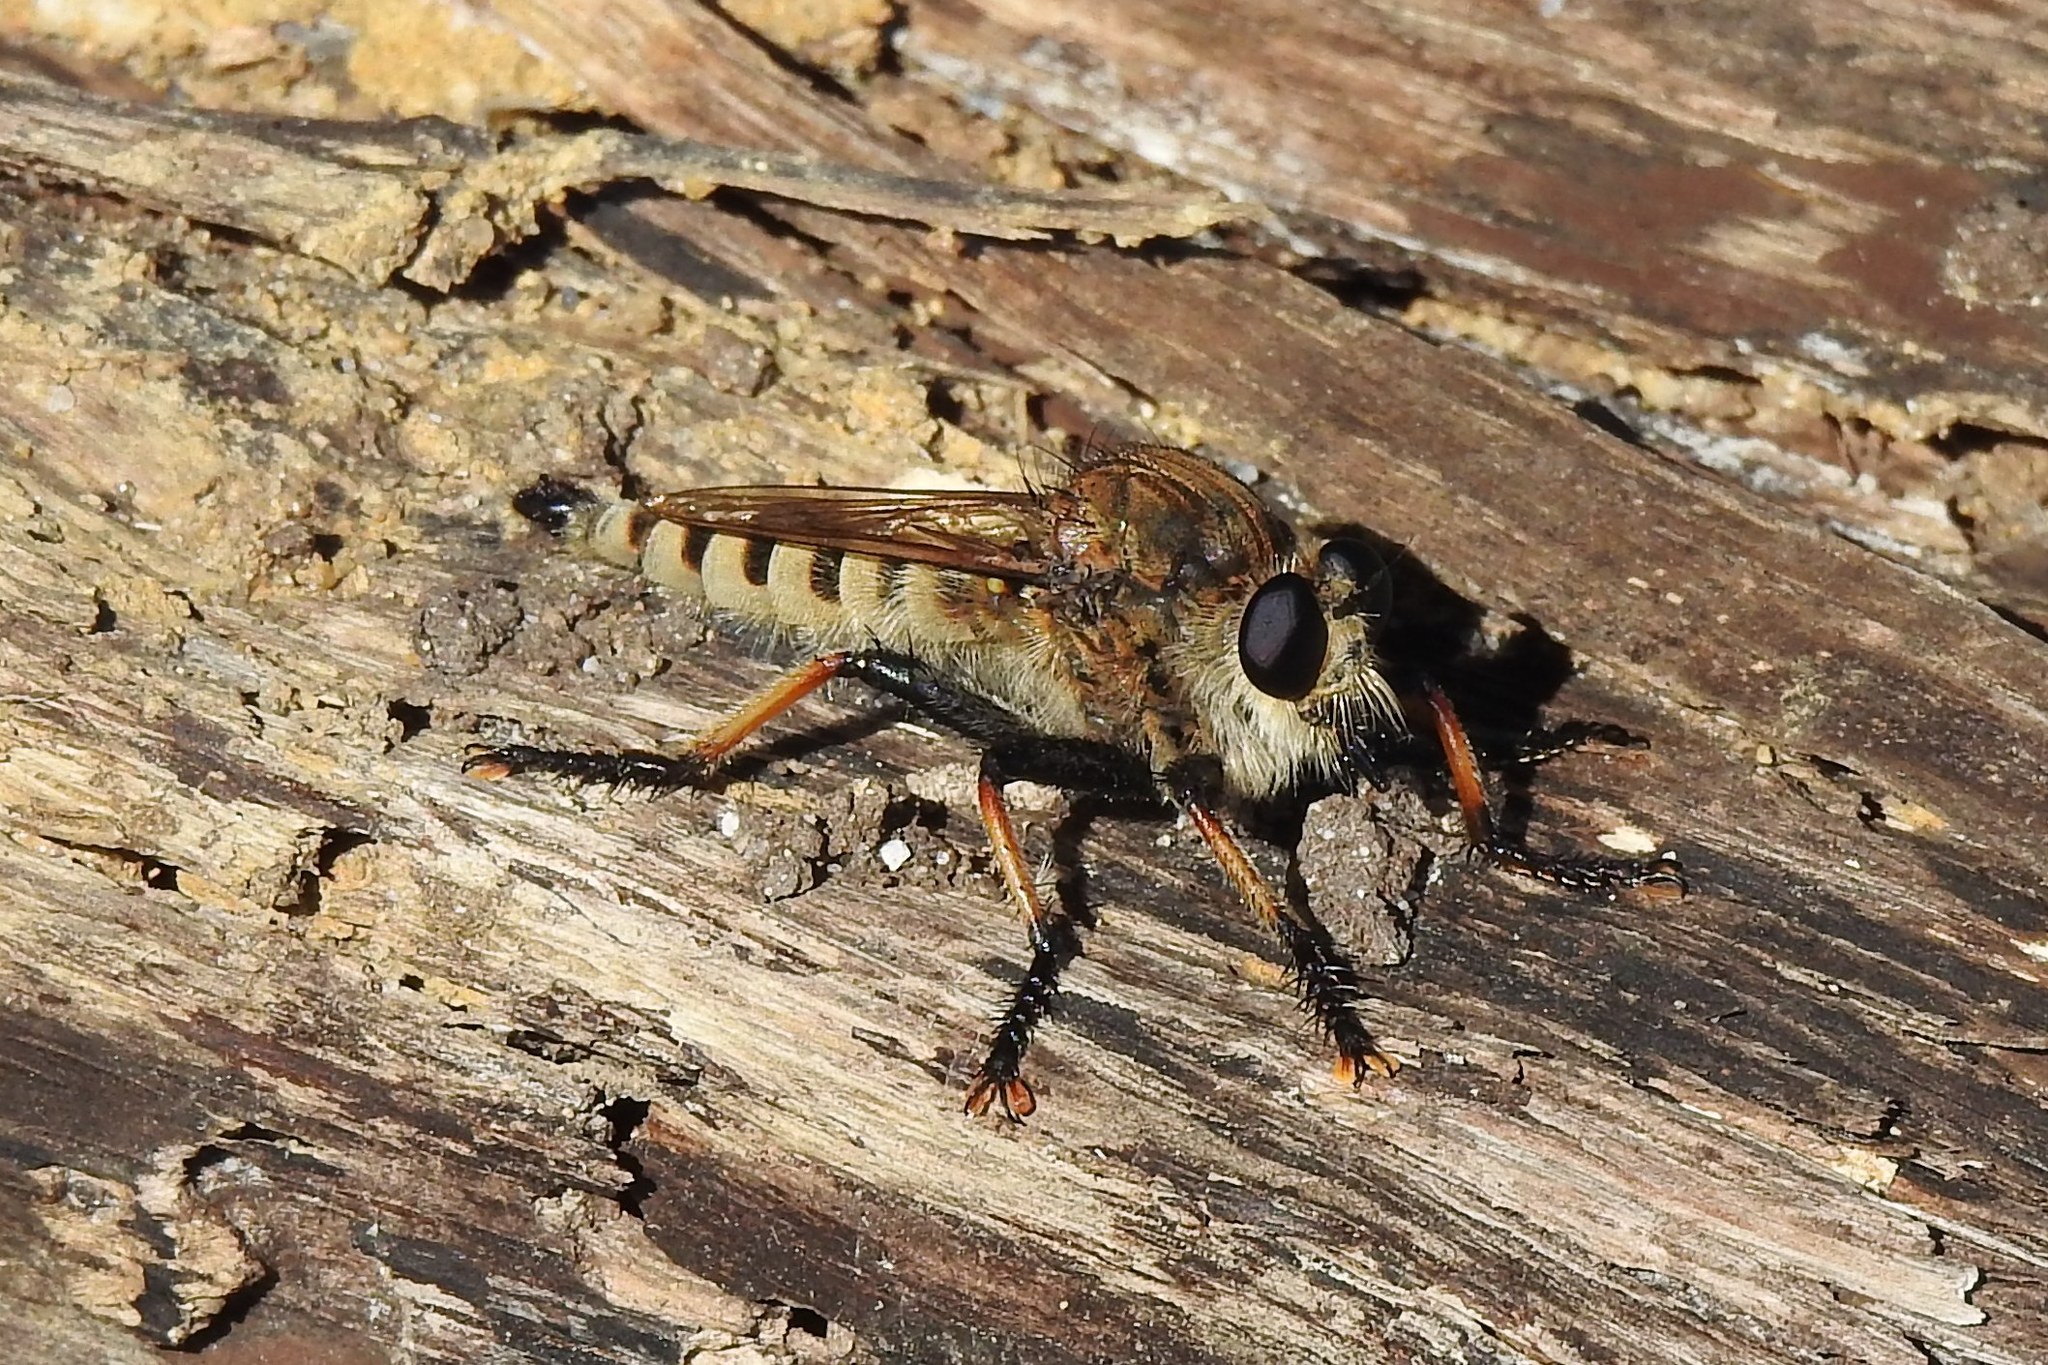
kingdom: Animalia
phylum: Arthropoda
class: Insecta
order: Diptera
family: Asilidae
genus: Promachus
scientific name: Promachus rufipes
